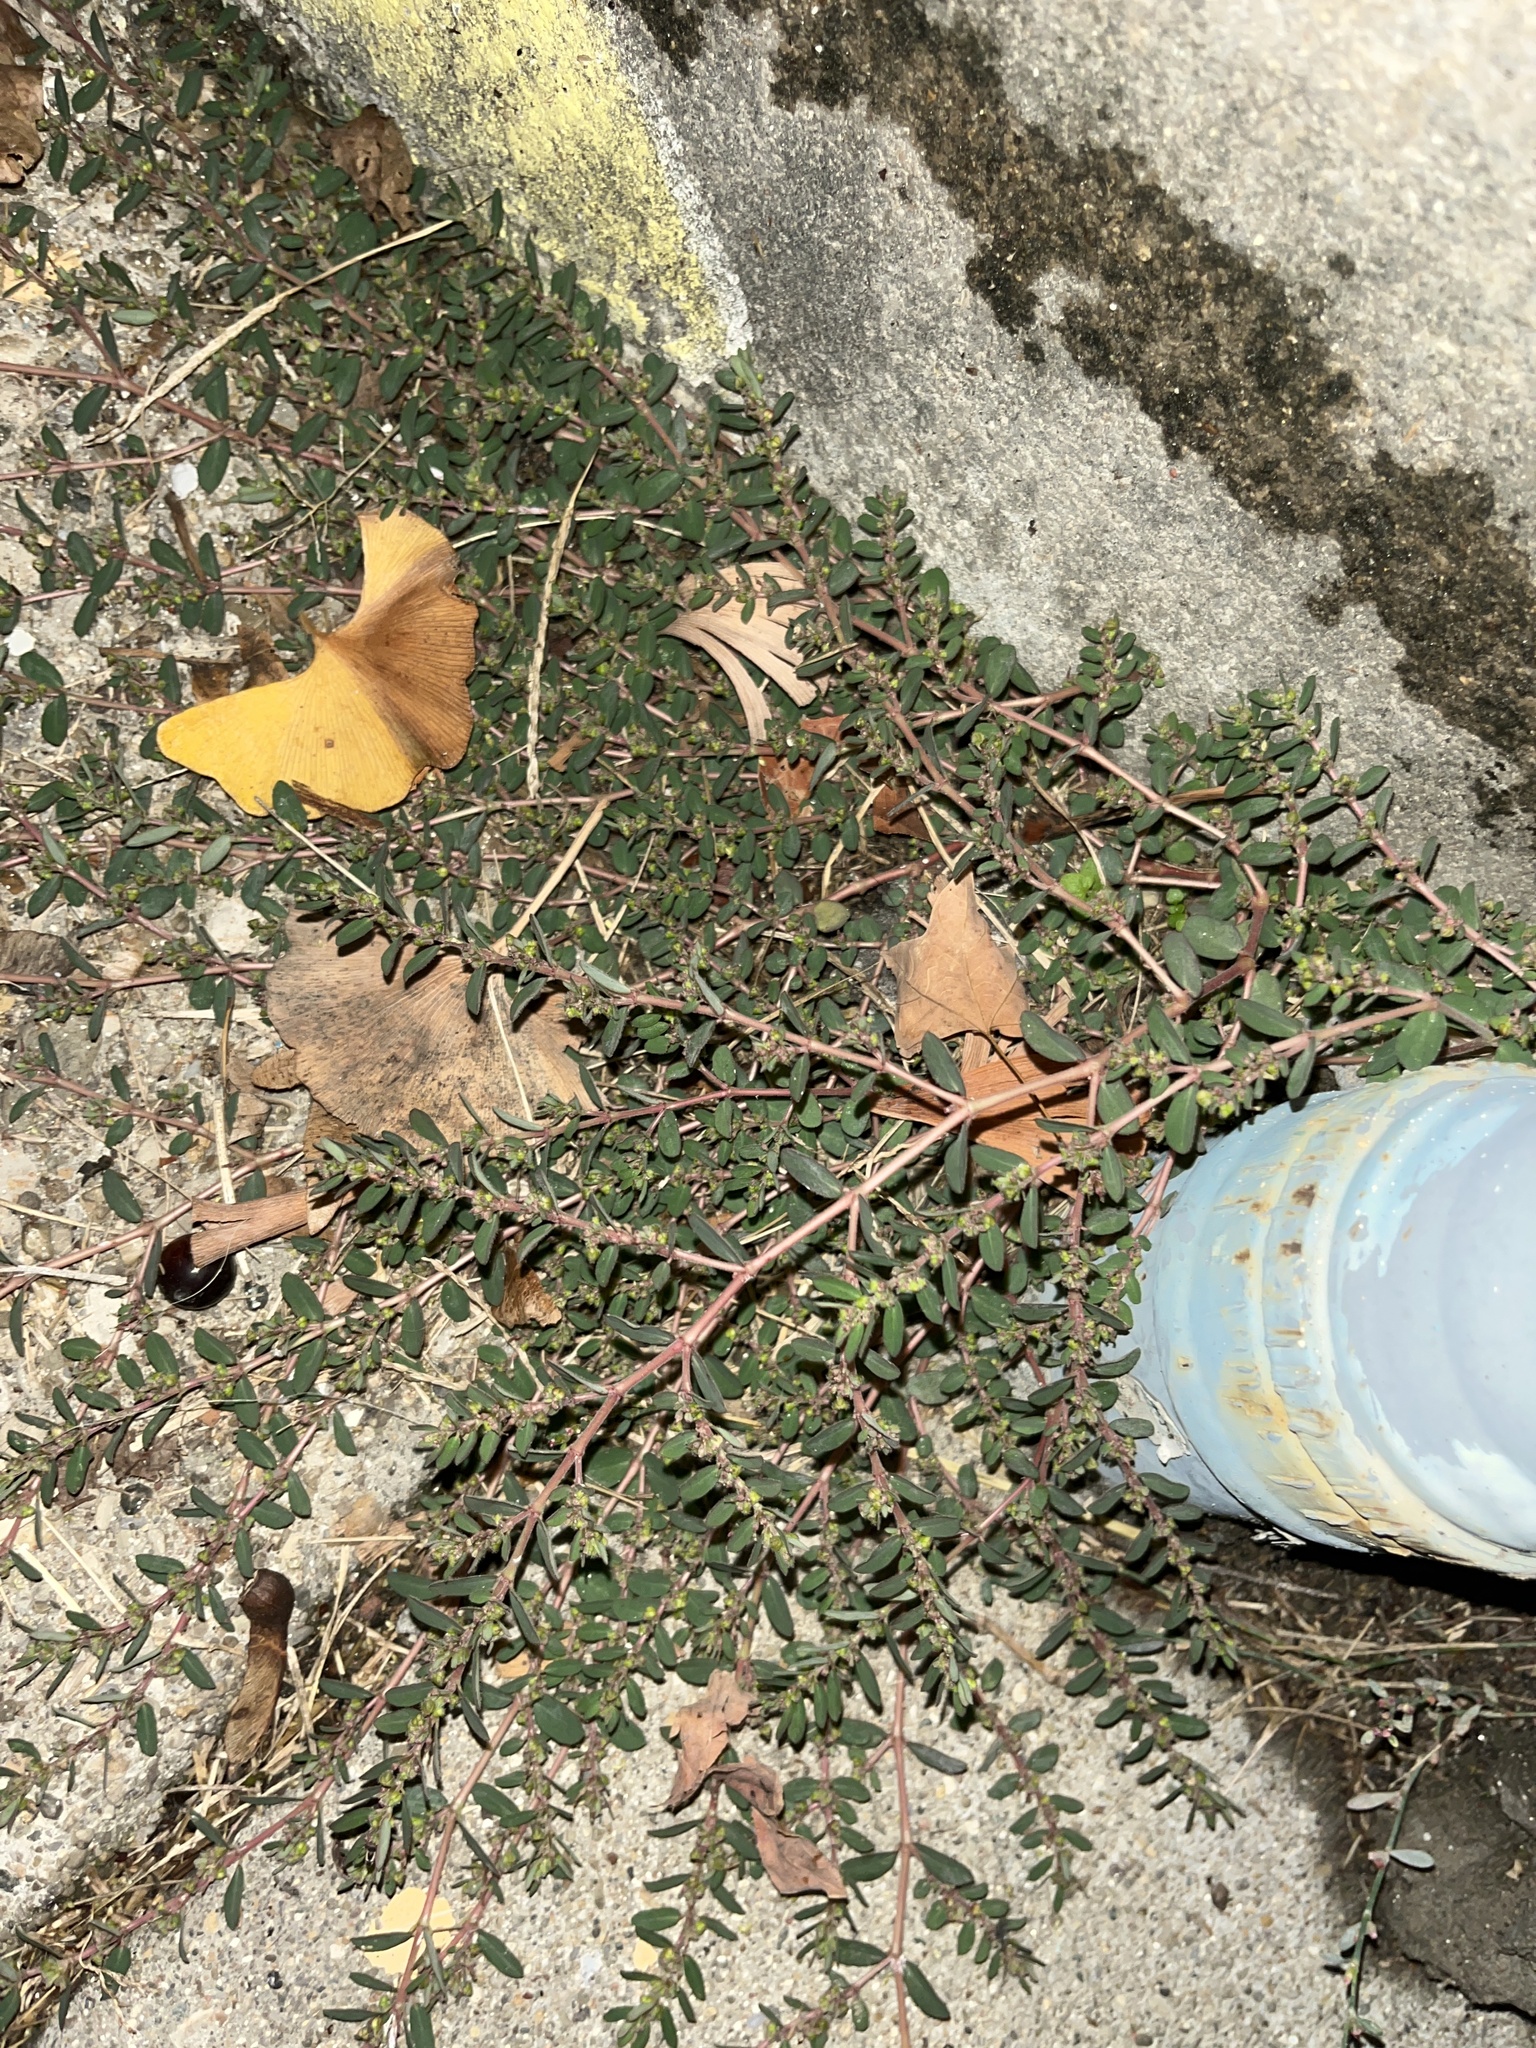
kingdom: Plantae
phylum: Tracheophyta
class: Magnoliopsida
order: Malpighiales
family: Euphorbiaceae
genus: Euphorbia
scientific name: Euphorbia prostrata
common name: Prostrate sandmat
